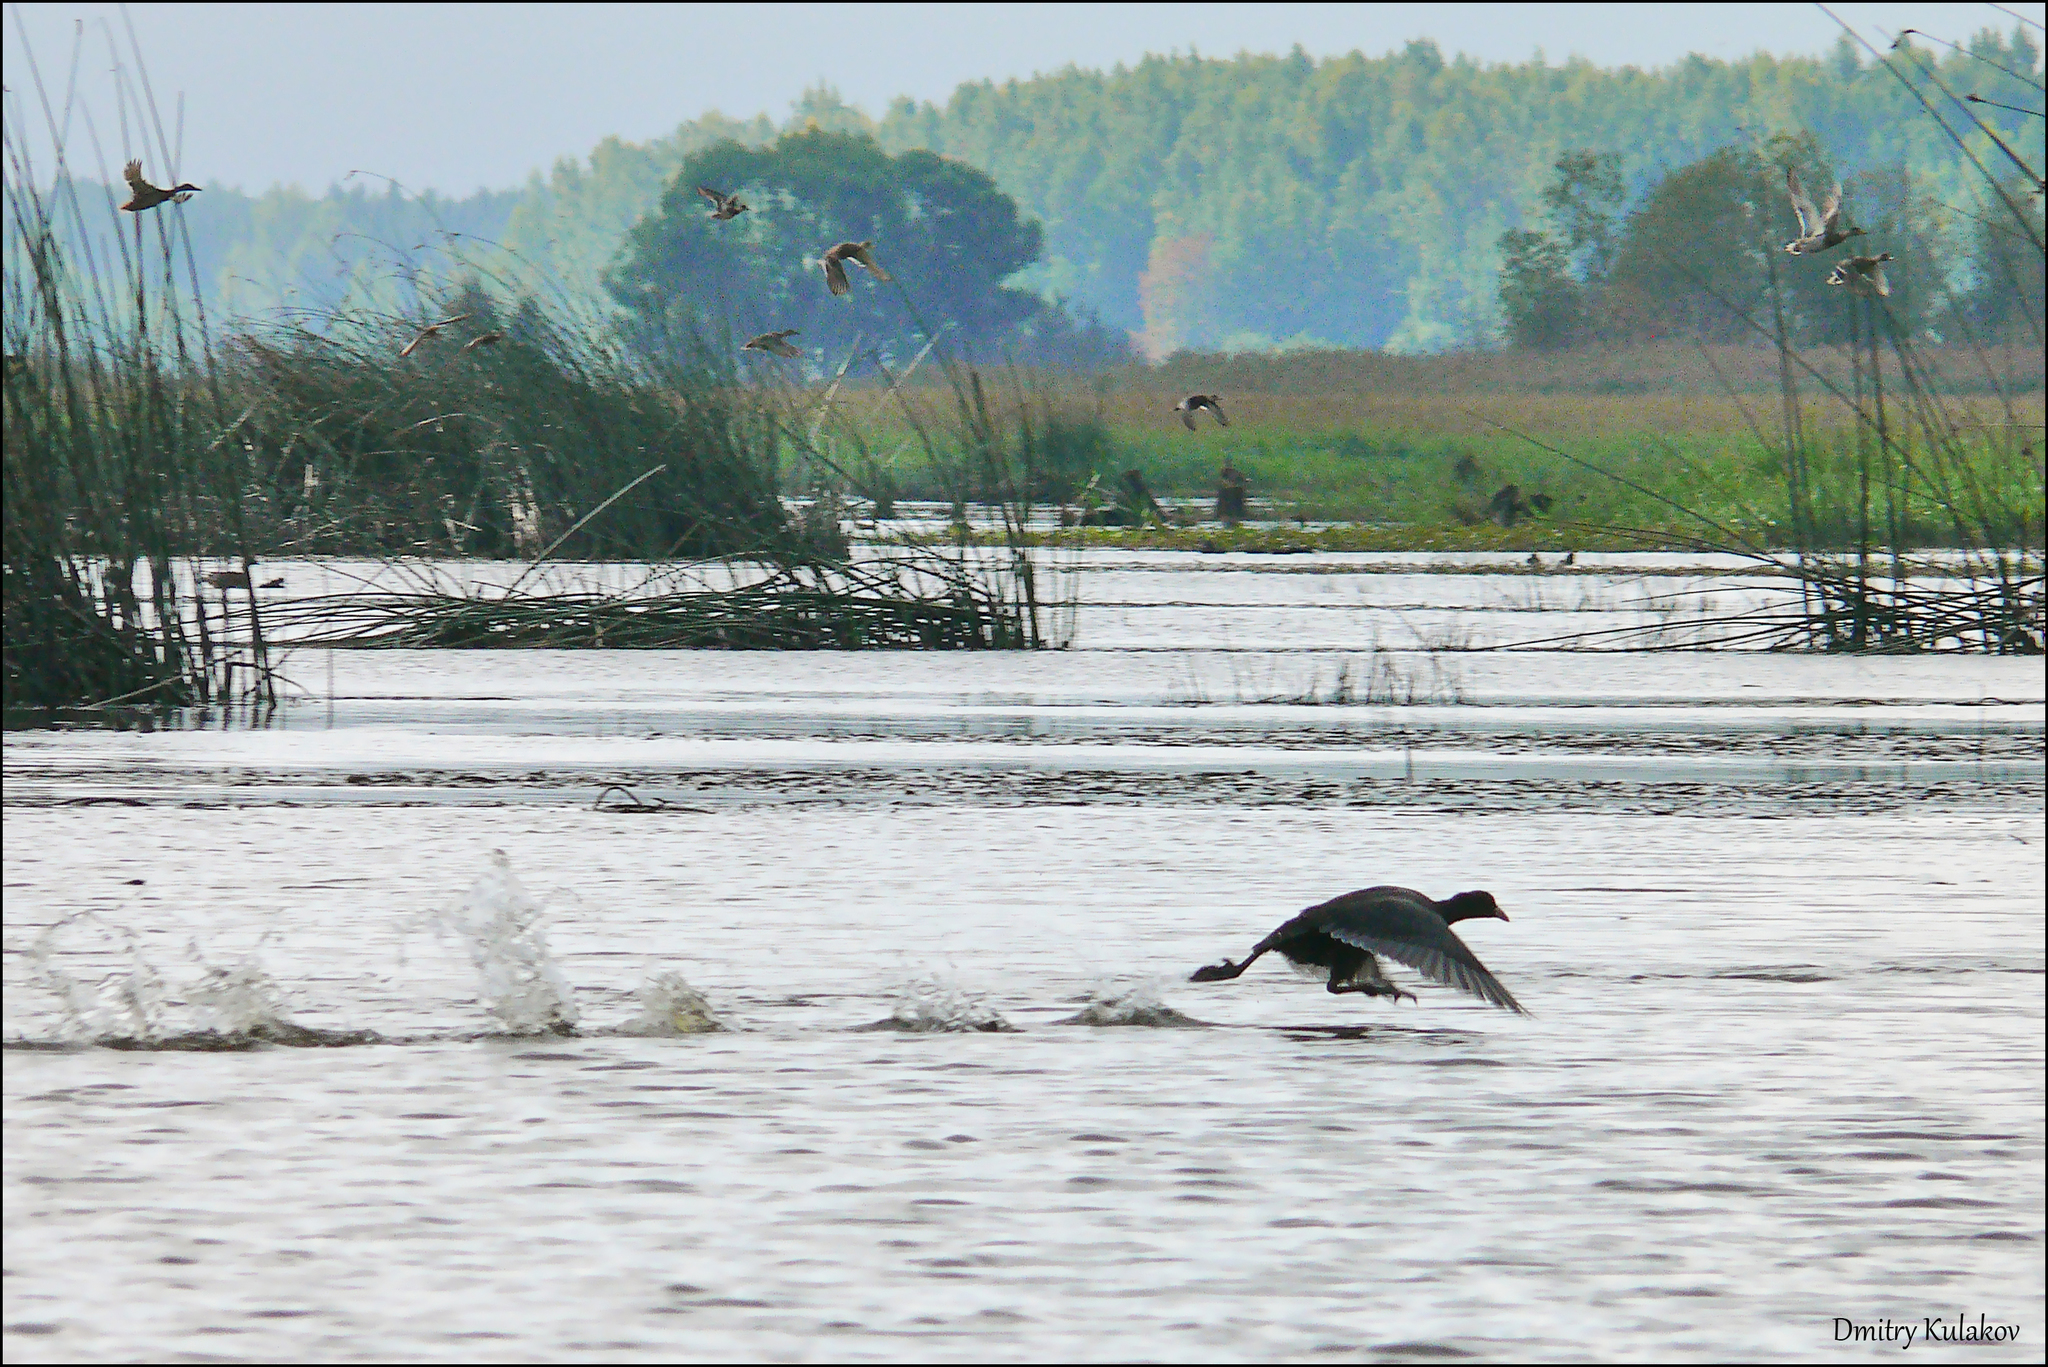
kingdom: Animalia
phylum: Chordata
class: Aves
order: Gruiformes
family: Rallidae
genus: Fulica
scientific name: Fulica atra
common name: Eurasian coot
